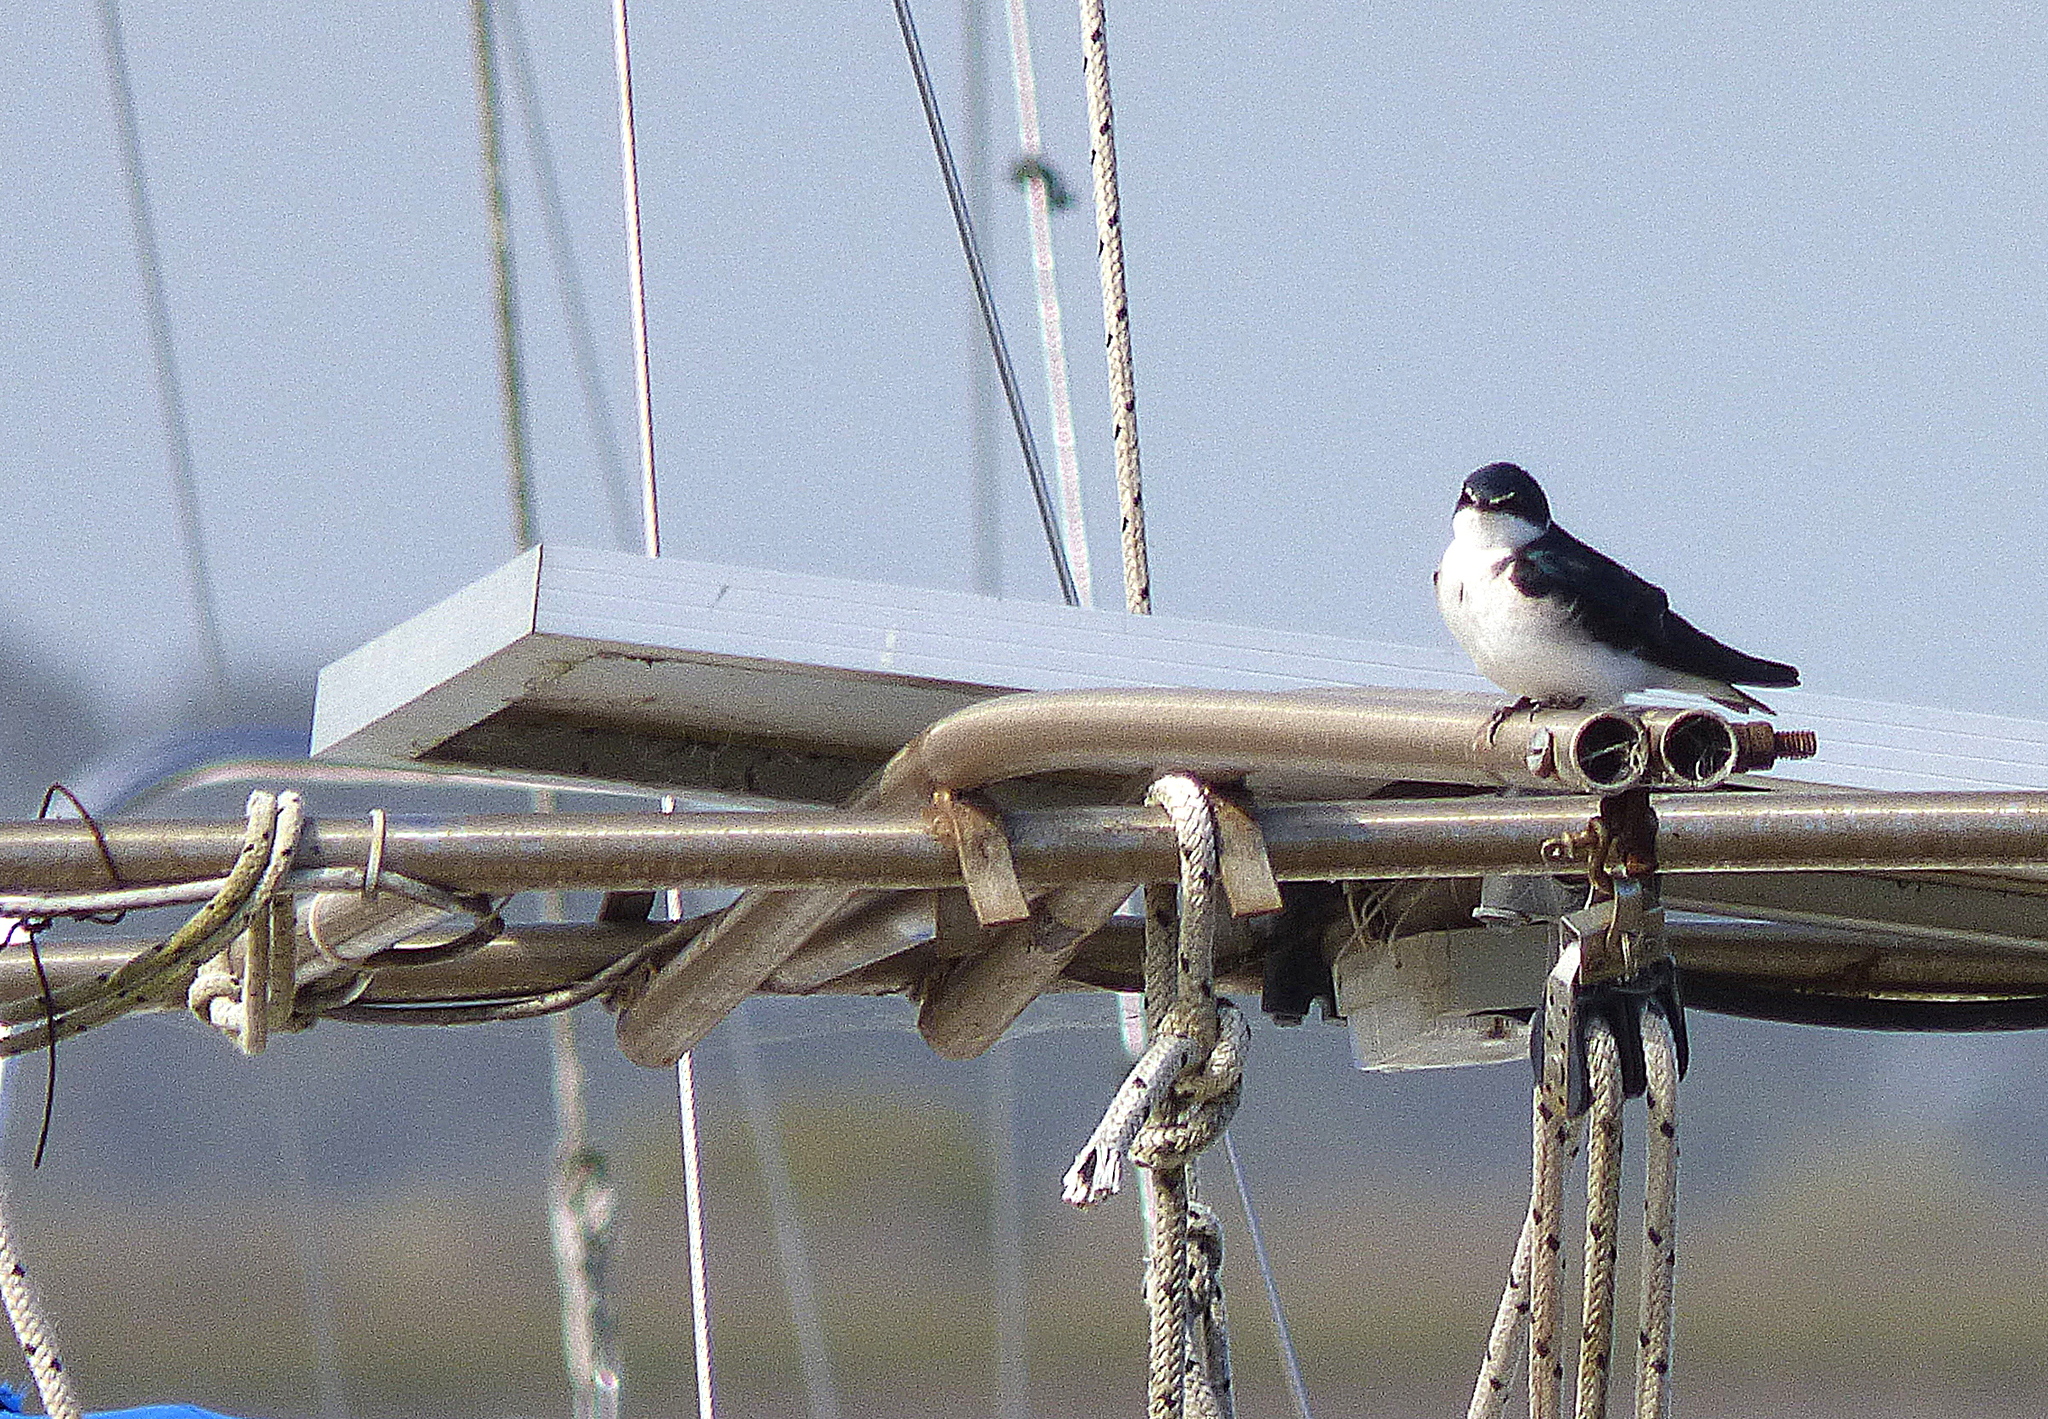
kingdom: Animalia
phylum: Chordata
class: Aves
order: Passeriformes
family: Hirundinidae
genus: Tachycineta
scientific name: Tachycineta leucorrhoa
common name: White-rumped swallow
